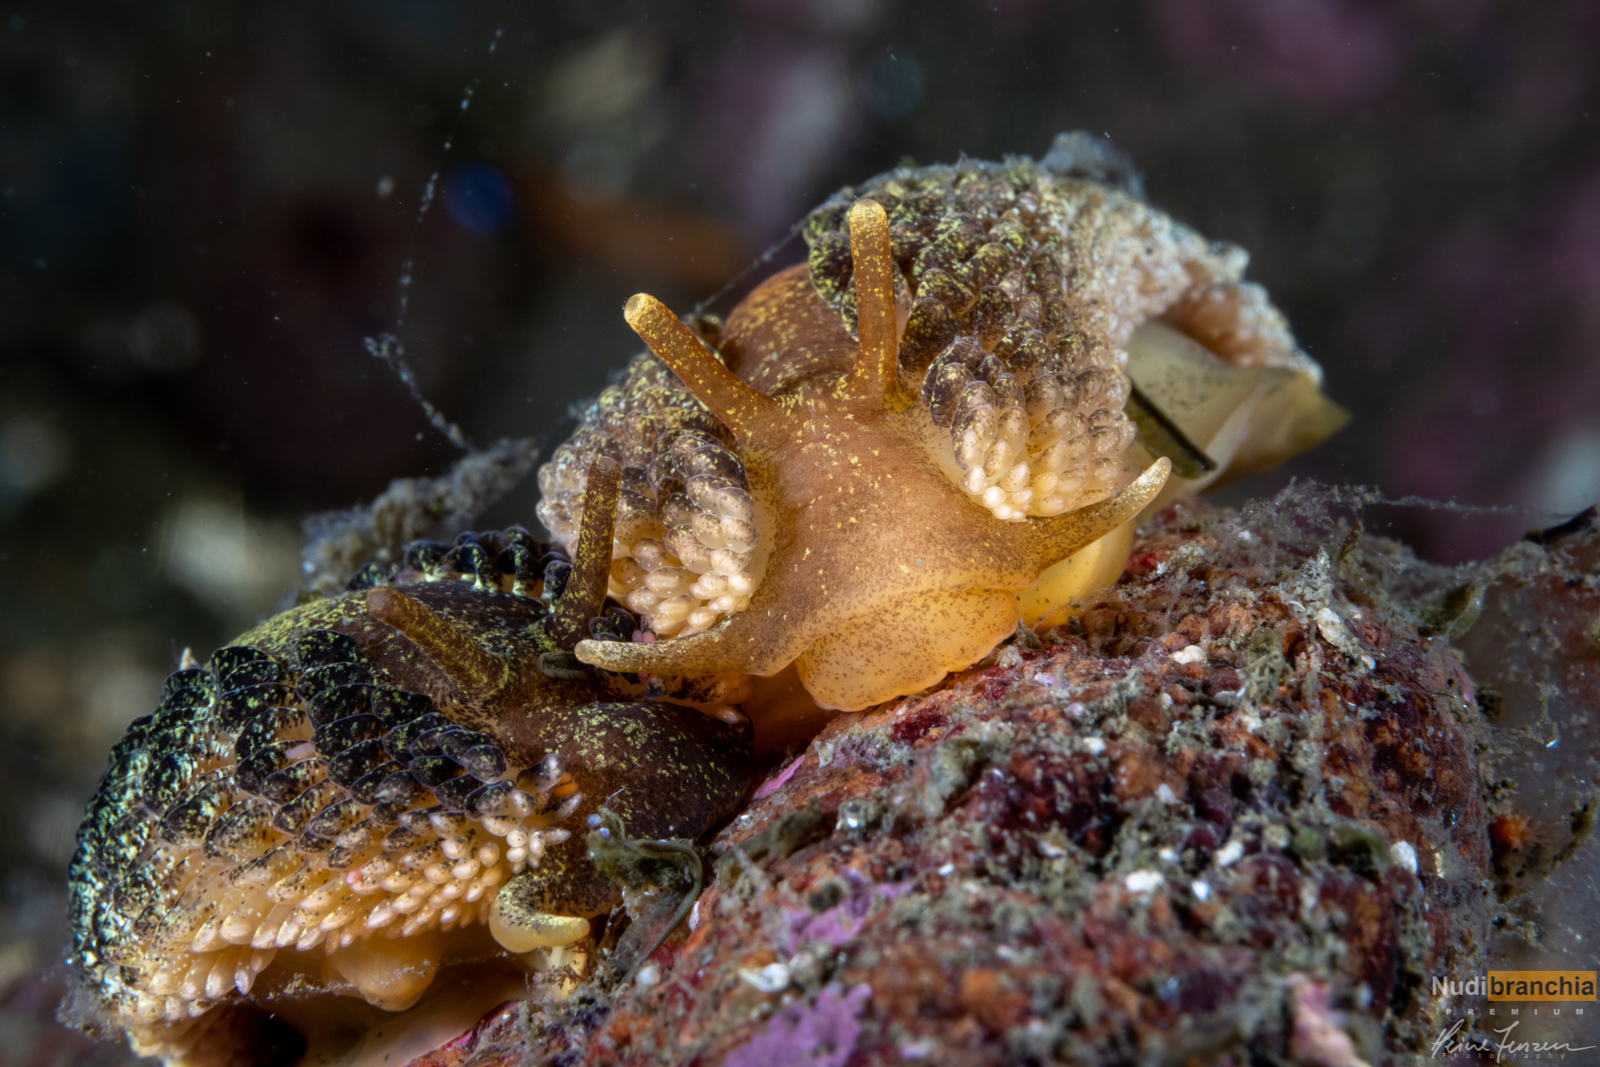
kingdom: Animalia
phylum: Mollusca
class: Gastropoda
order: Nudibranchia
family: Aeolidiidae
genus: Aeolidia
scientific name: Aeolidia papillosa
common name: Common grey sea slug
